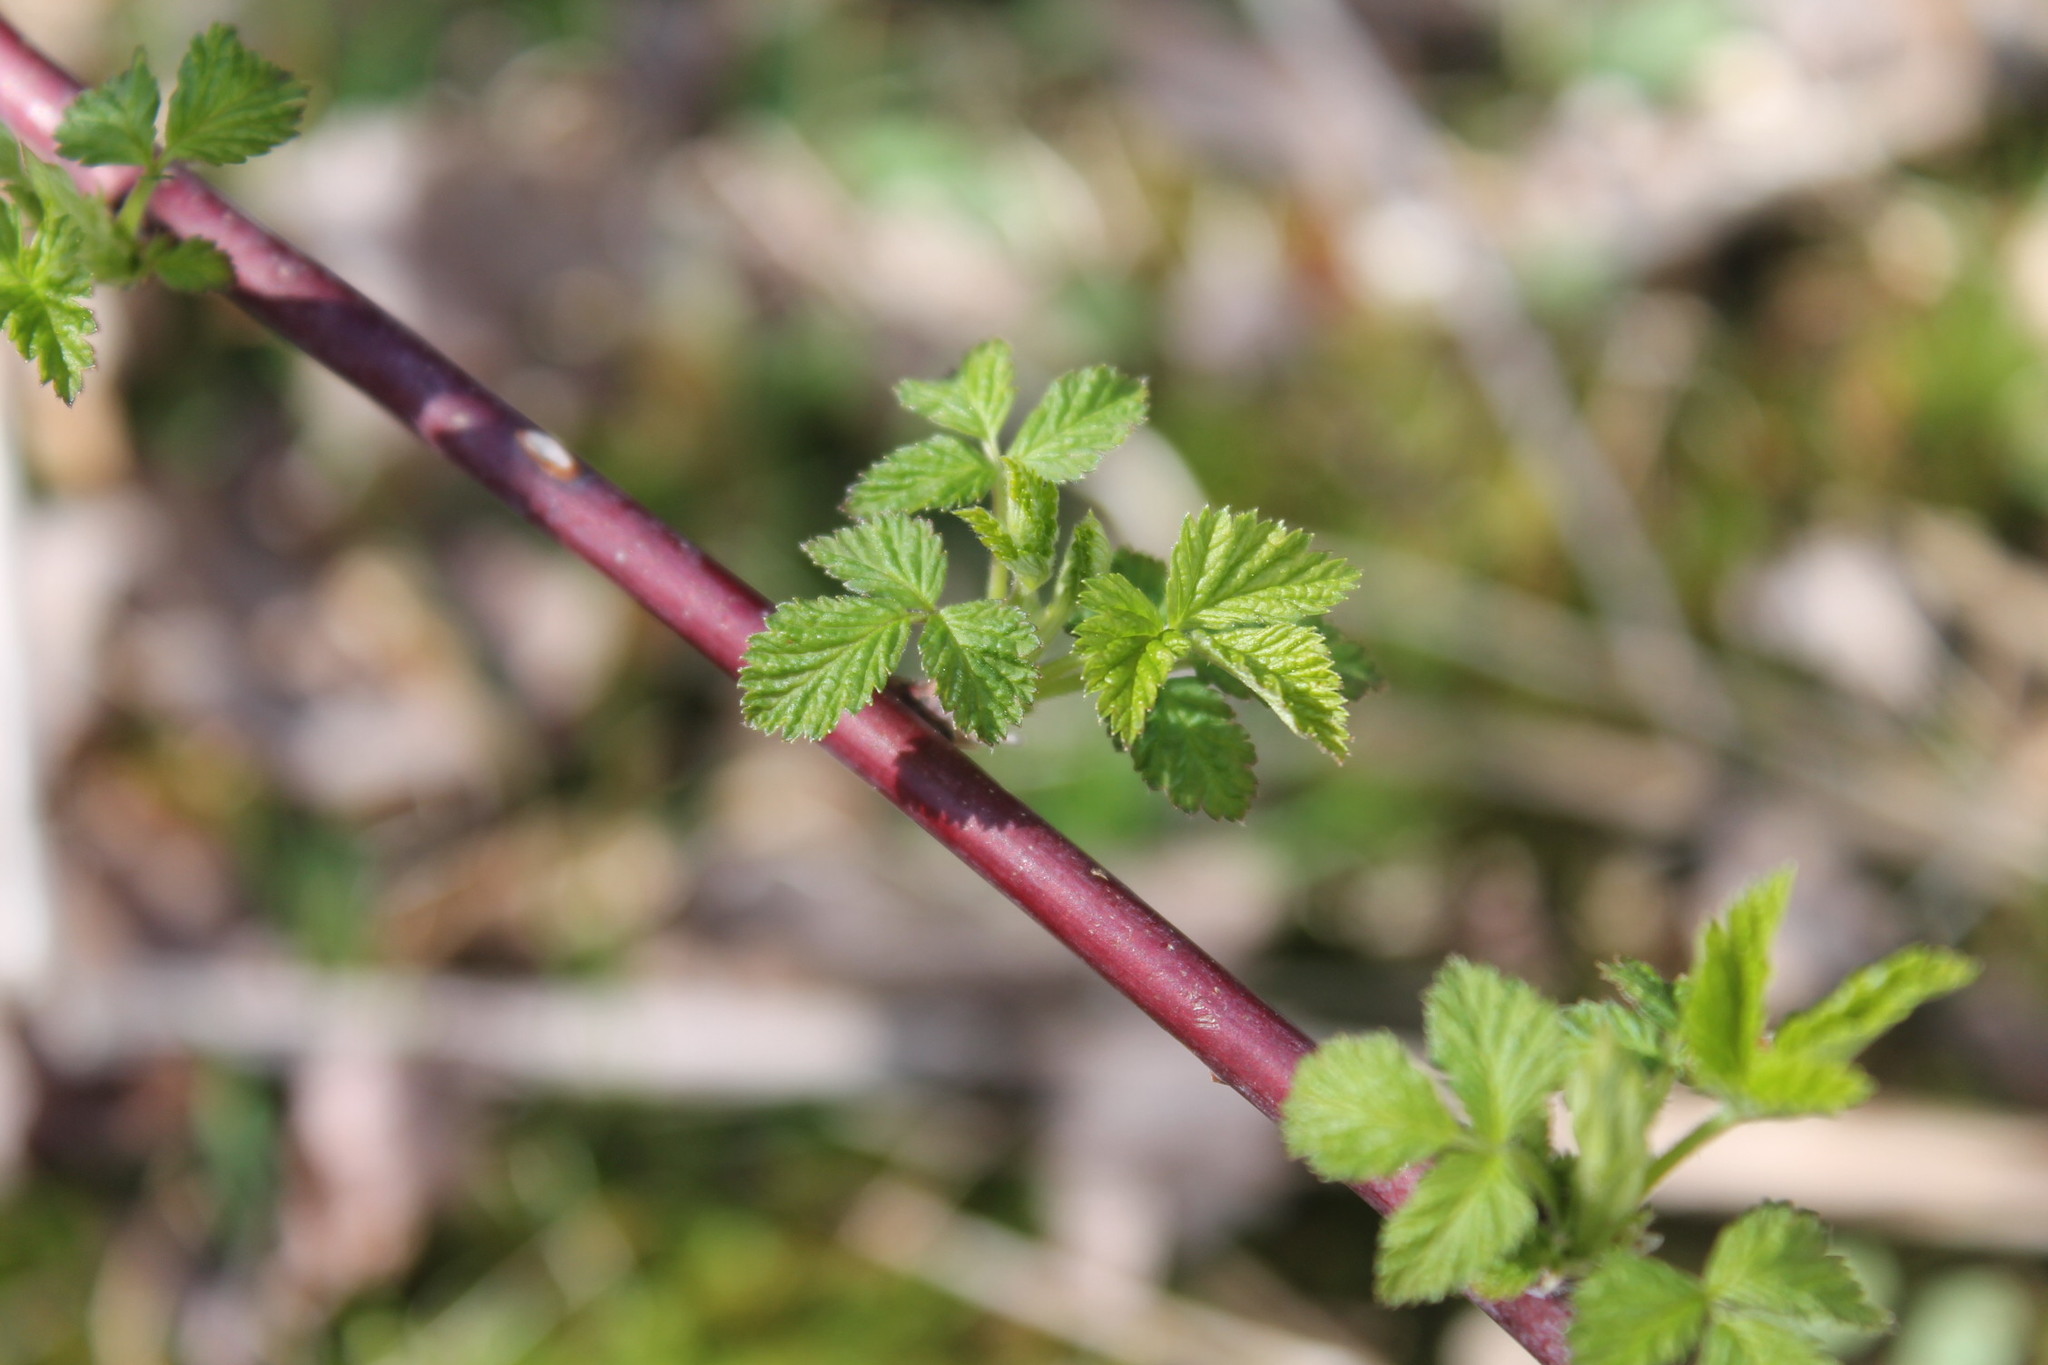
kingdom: Plantae
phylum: Tracheophyta
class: Magnoliopsida
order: Rosales
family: Rosaceae
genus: Rubus
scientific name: Rubus occidentalis
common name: Black raspberry
